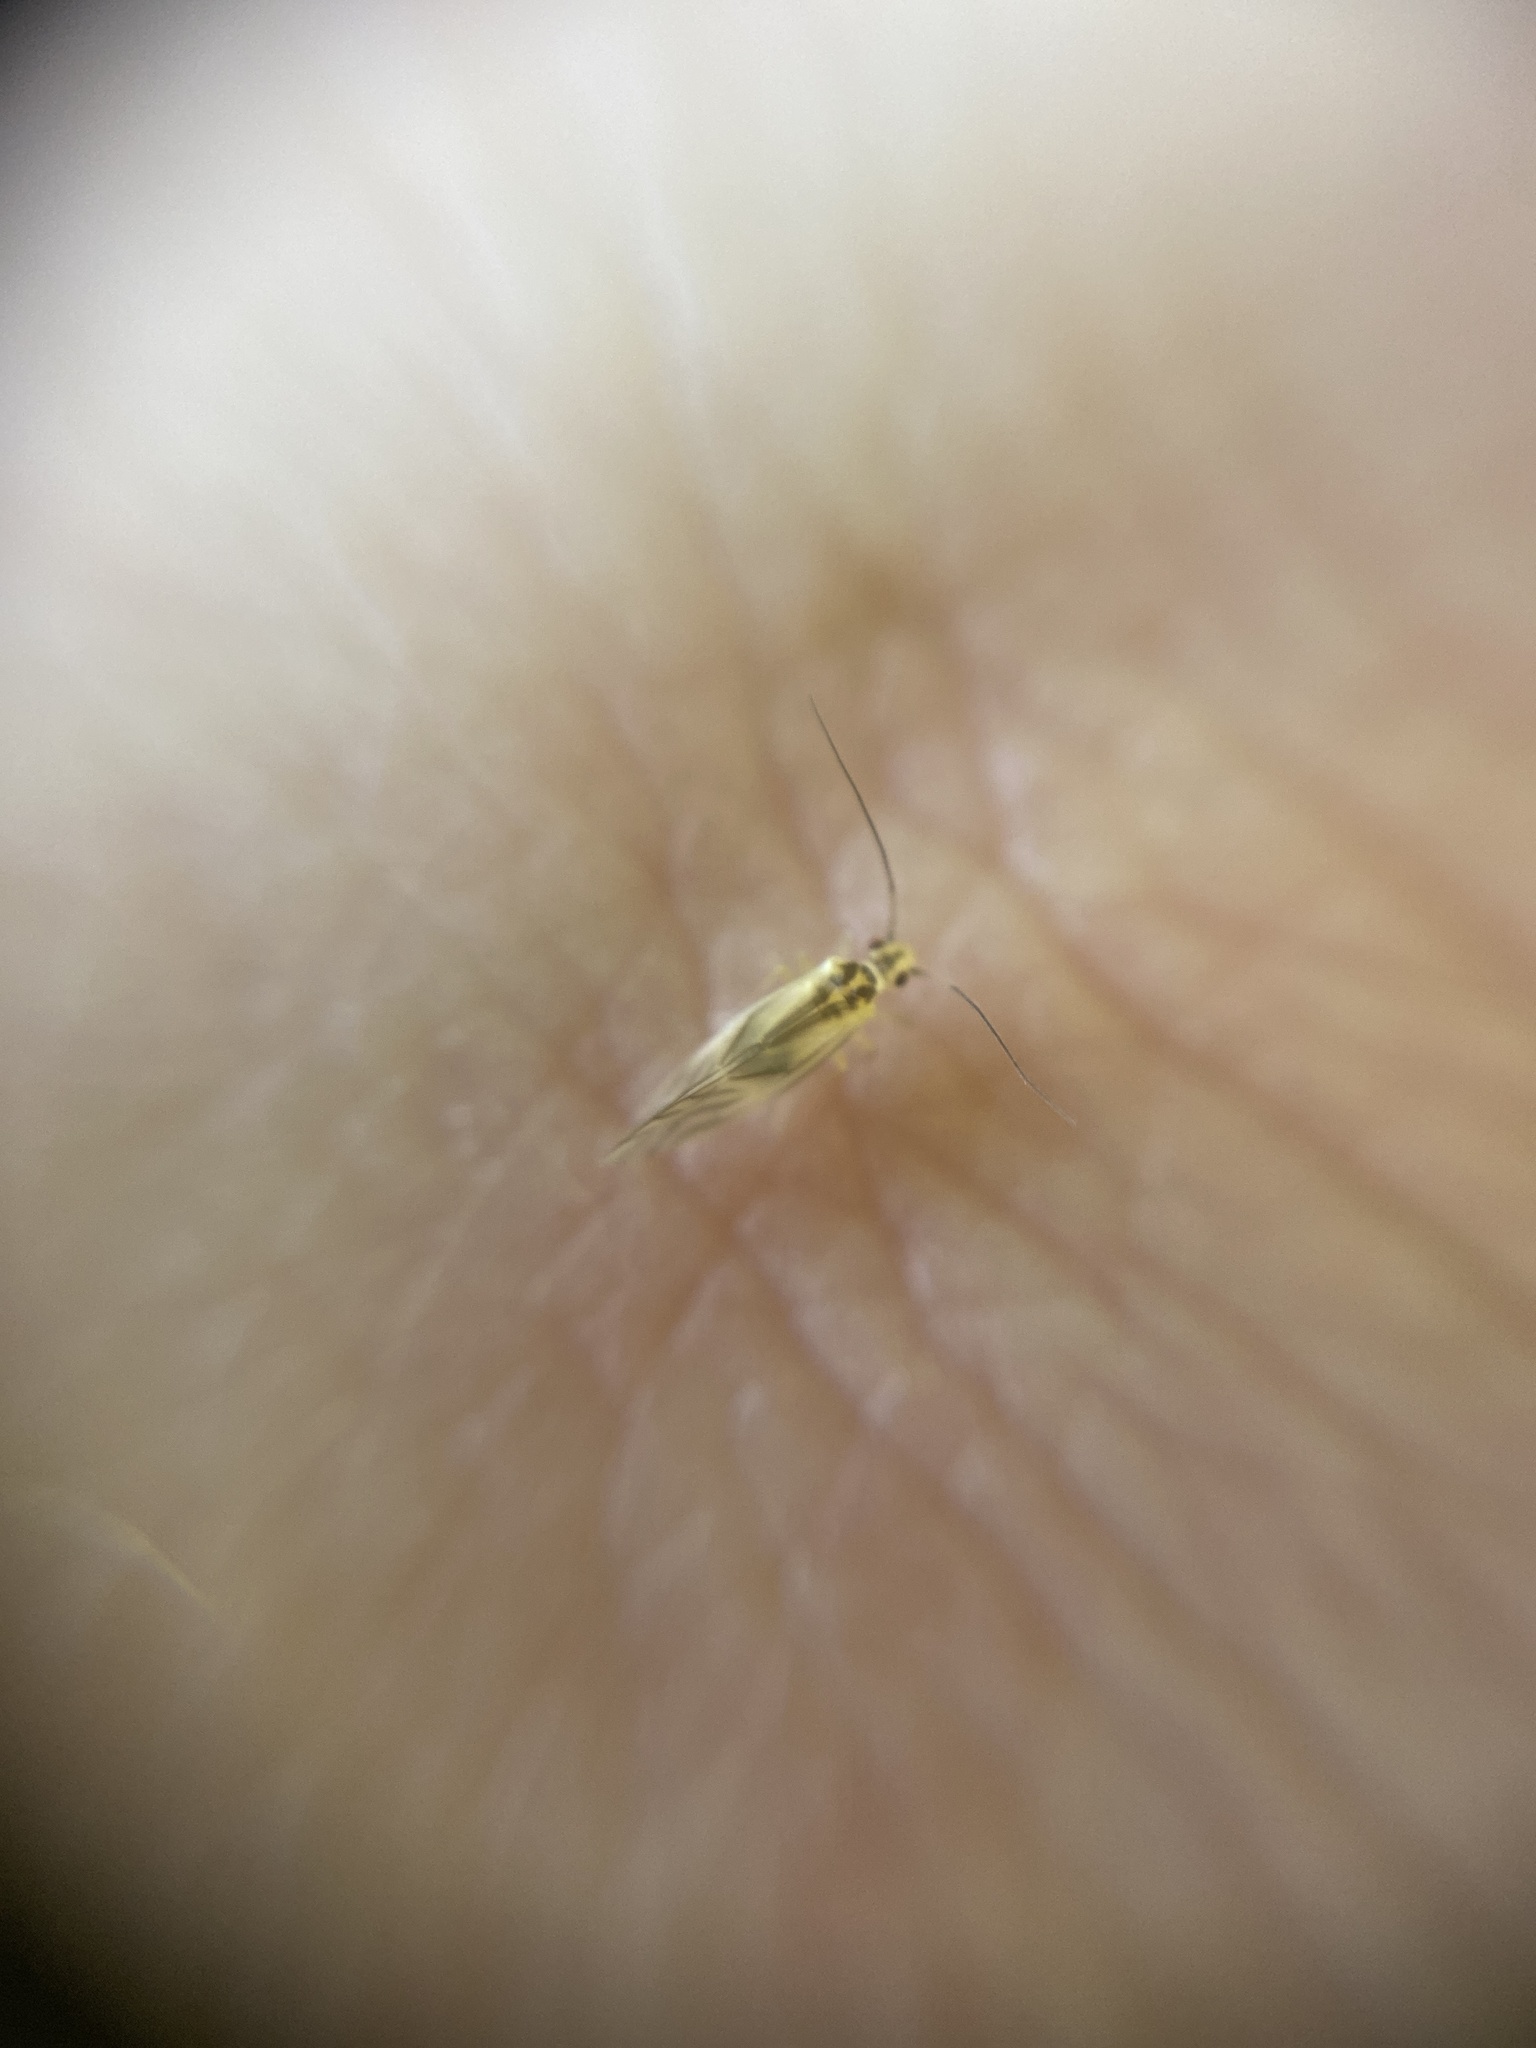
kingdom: Animalia
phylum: Arthropoda
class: Insecta
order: Psocodea
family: Caeciliusidae
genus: Valenzuela
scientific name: Valenzuela flavidus
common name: Yellow barklouse
